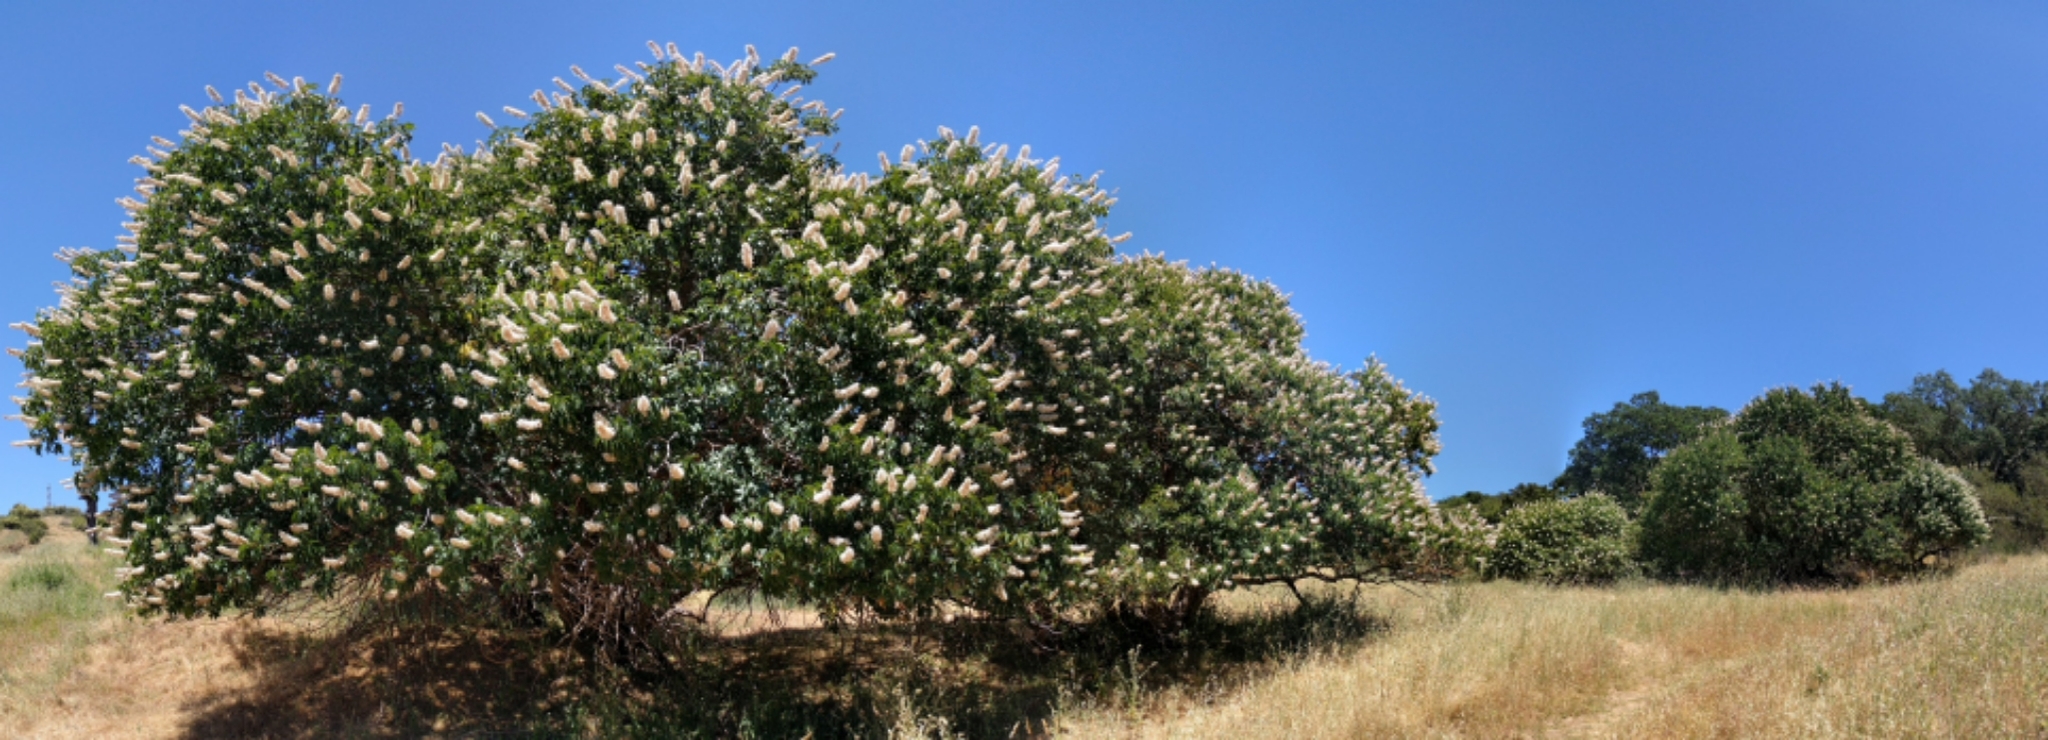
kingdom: Plantae
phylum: Tracheophyta
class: Magnoliopsida
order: Sapindales
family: Sapindaceae
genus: Aesculus
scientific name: Aesculus californica
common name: California buckeye
